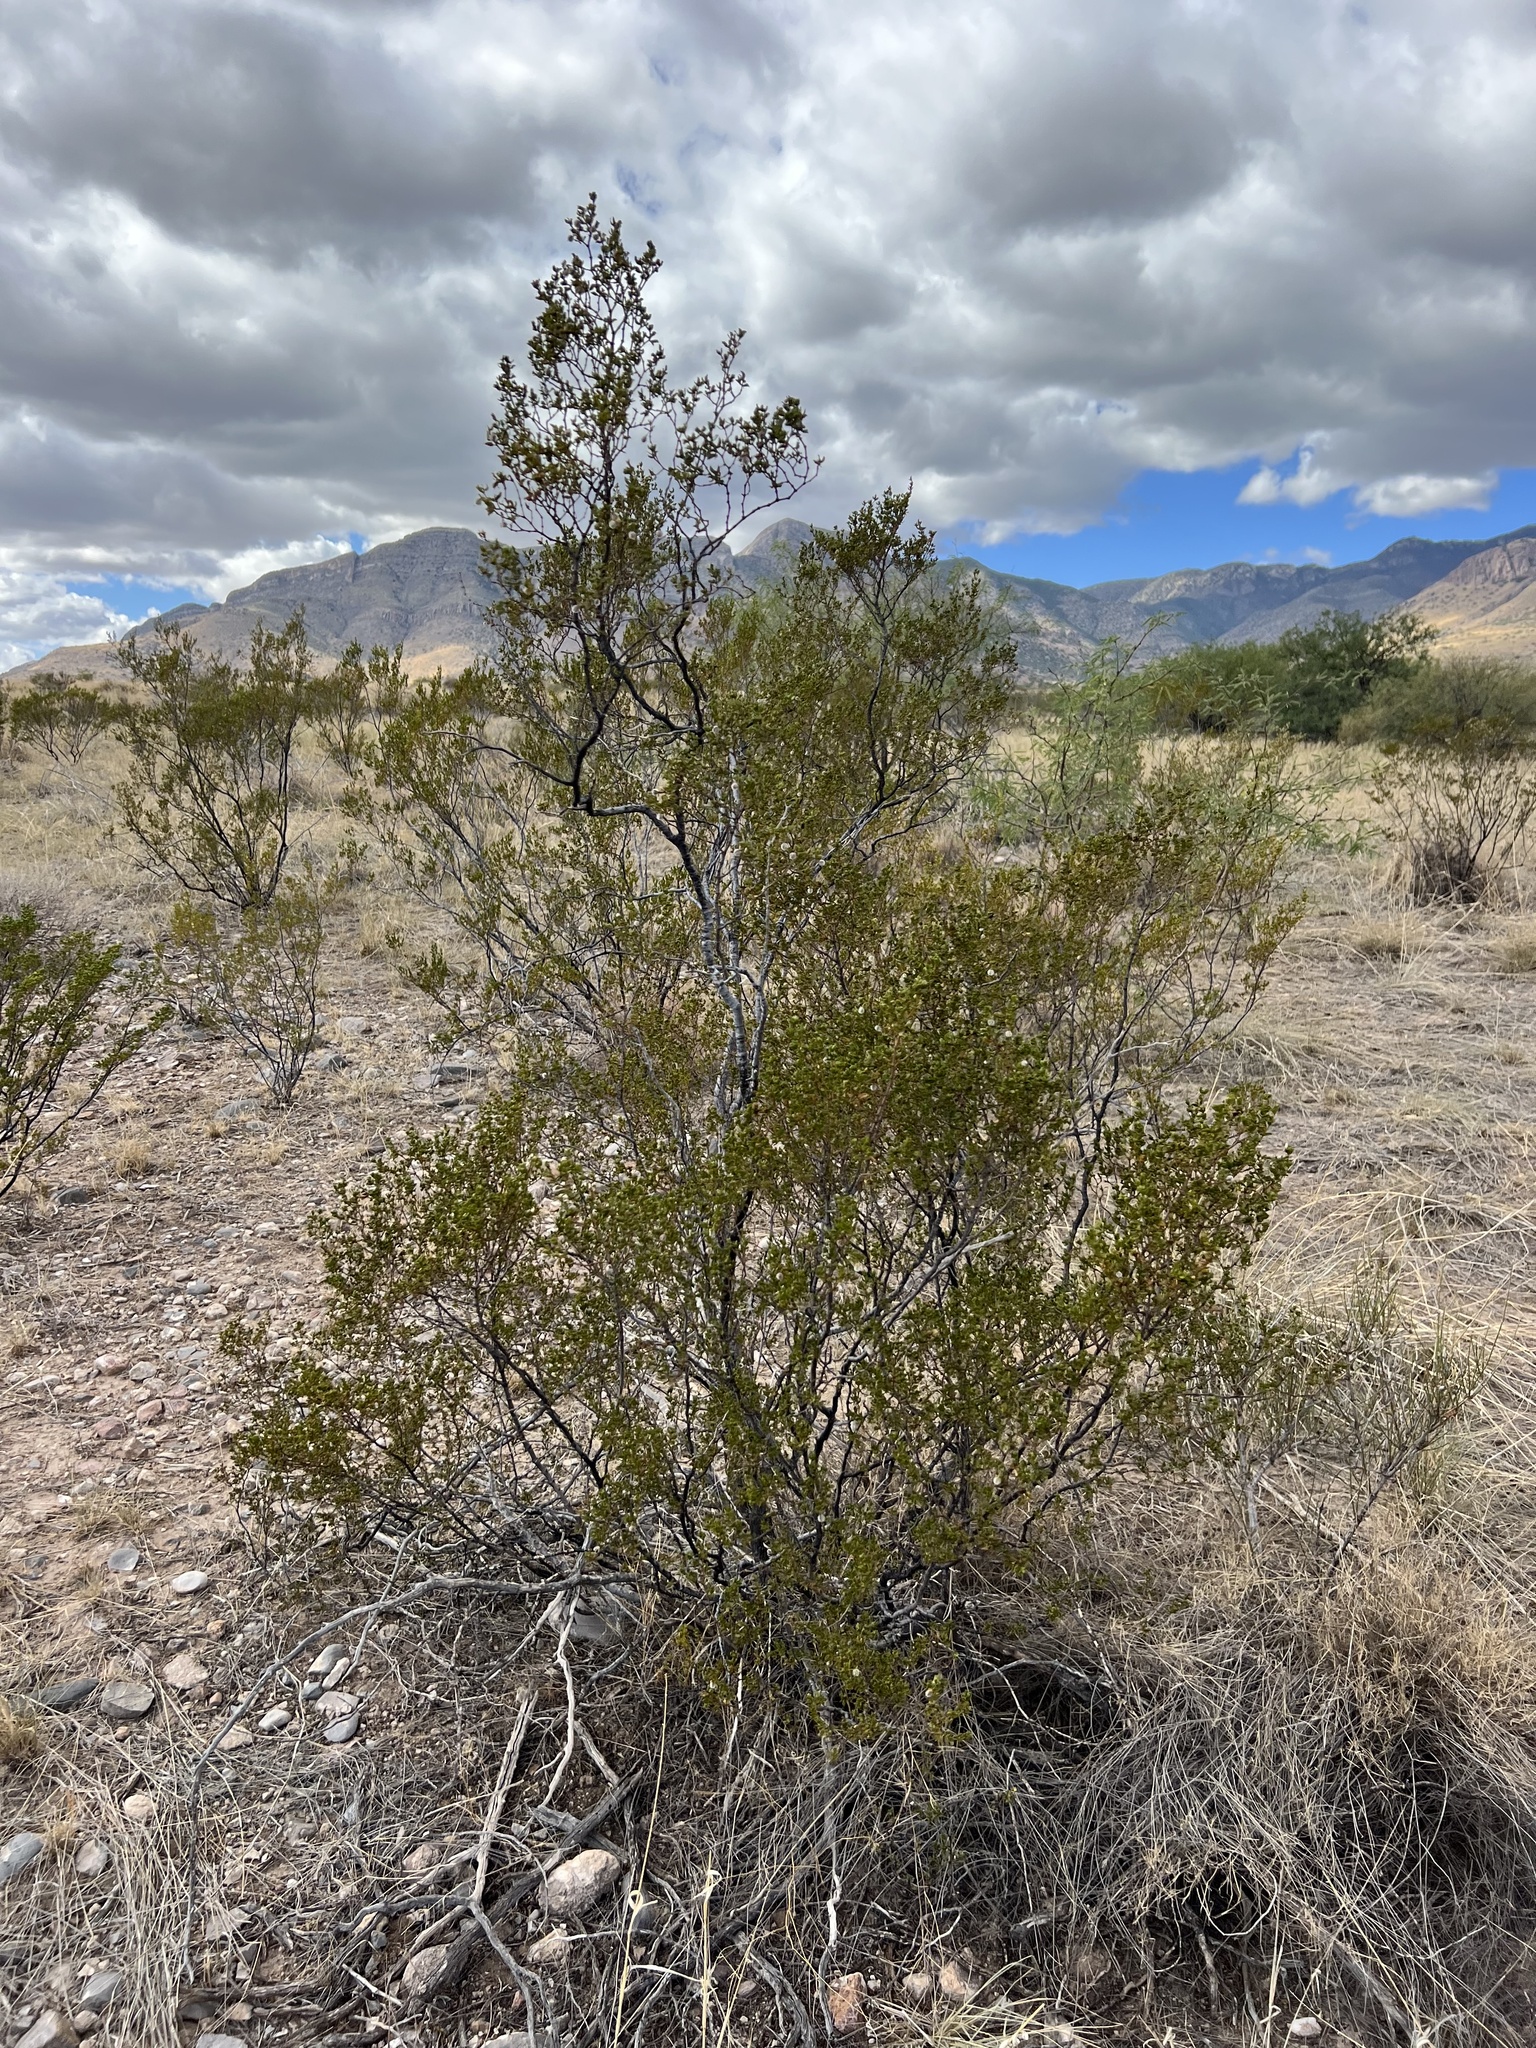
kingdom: Plantae
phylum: Tracheophyta
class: Magnoliopsida
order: Zygophyllales
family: Zygophyllaceae
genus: Larrea
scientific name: Larrea tridentata
